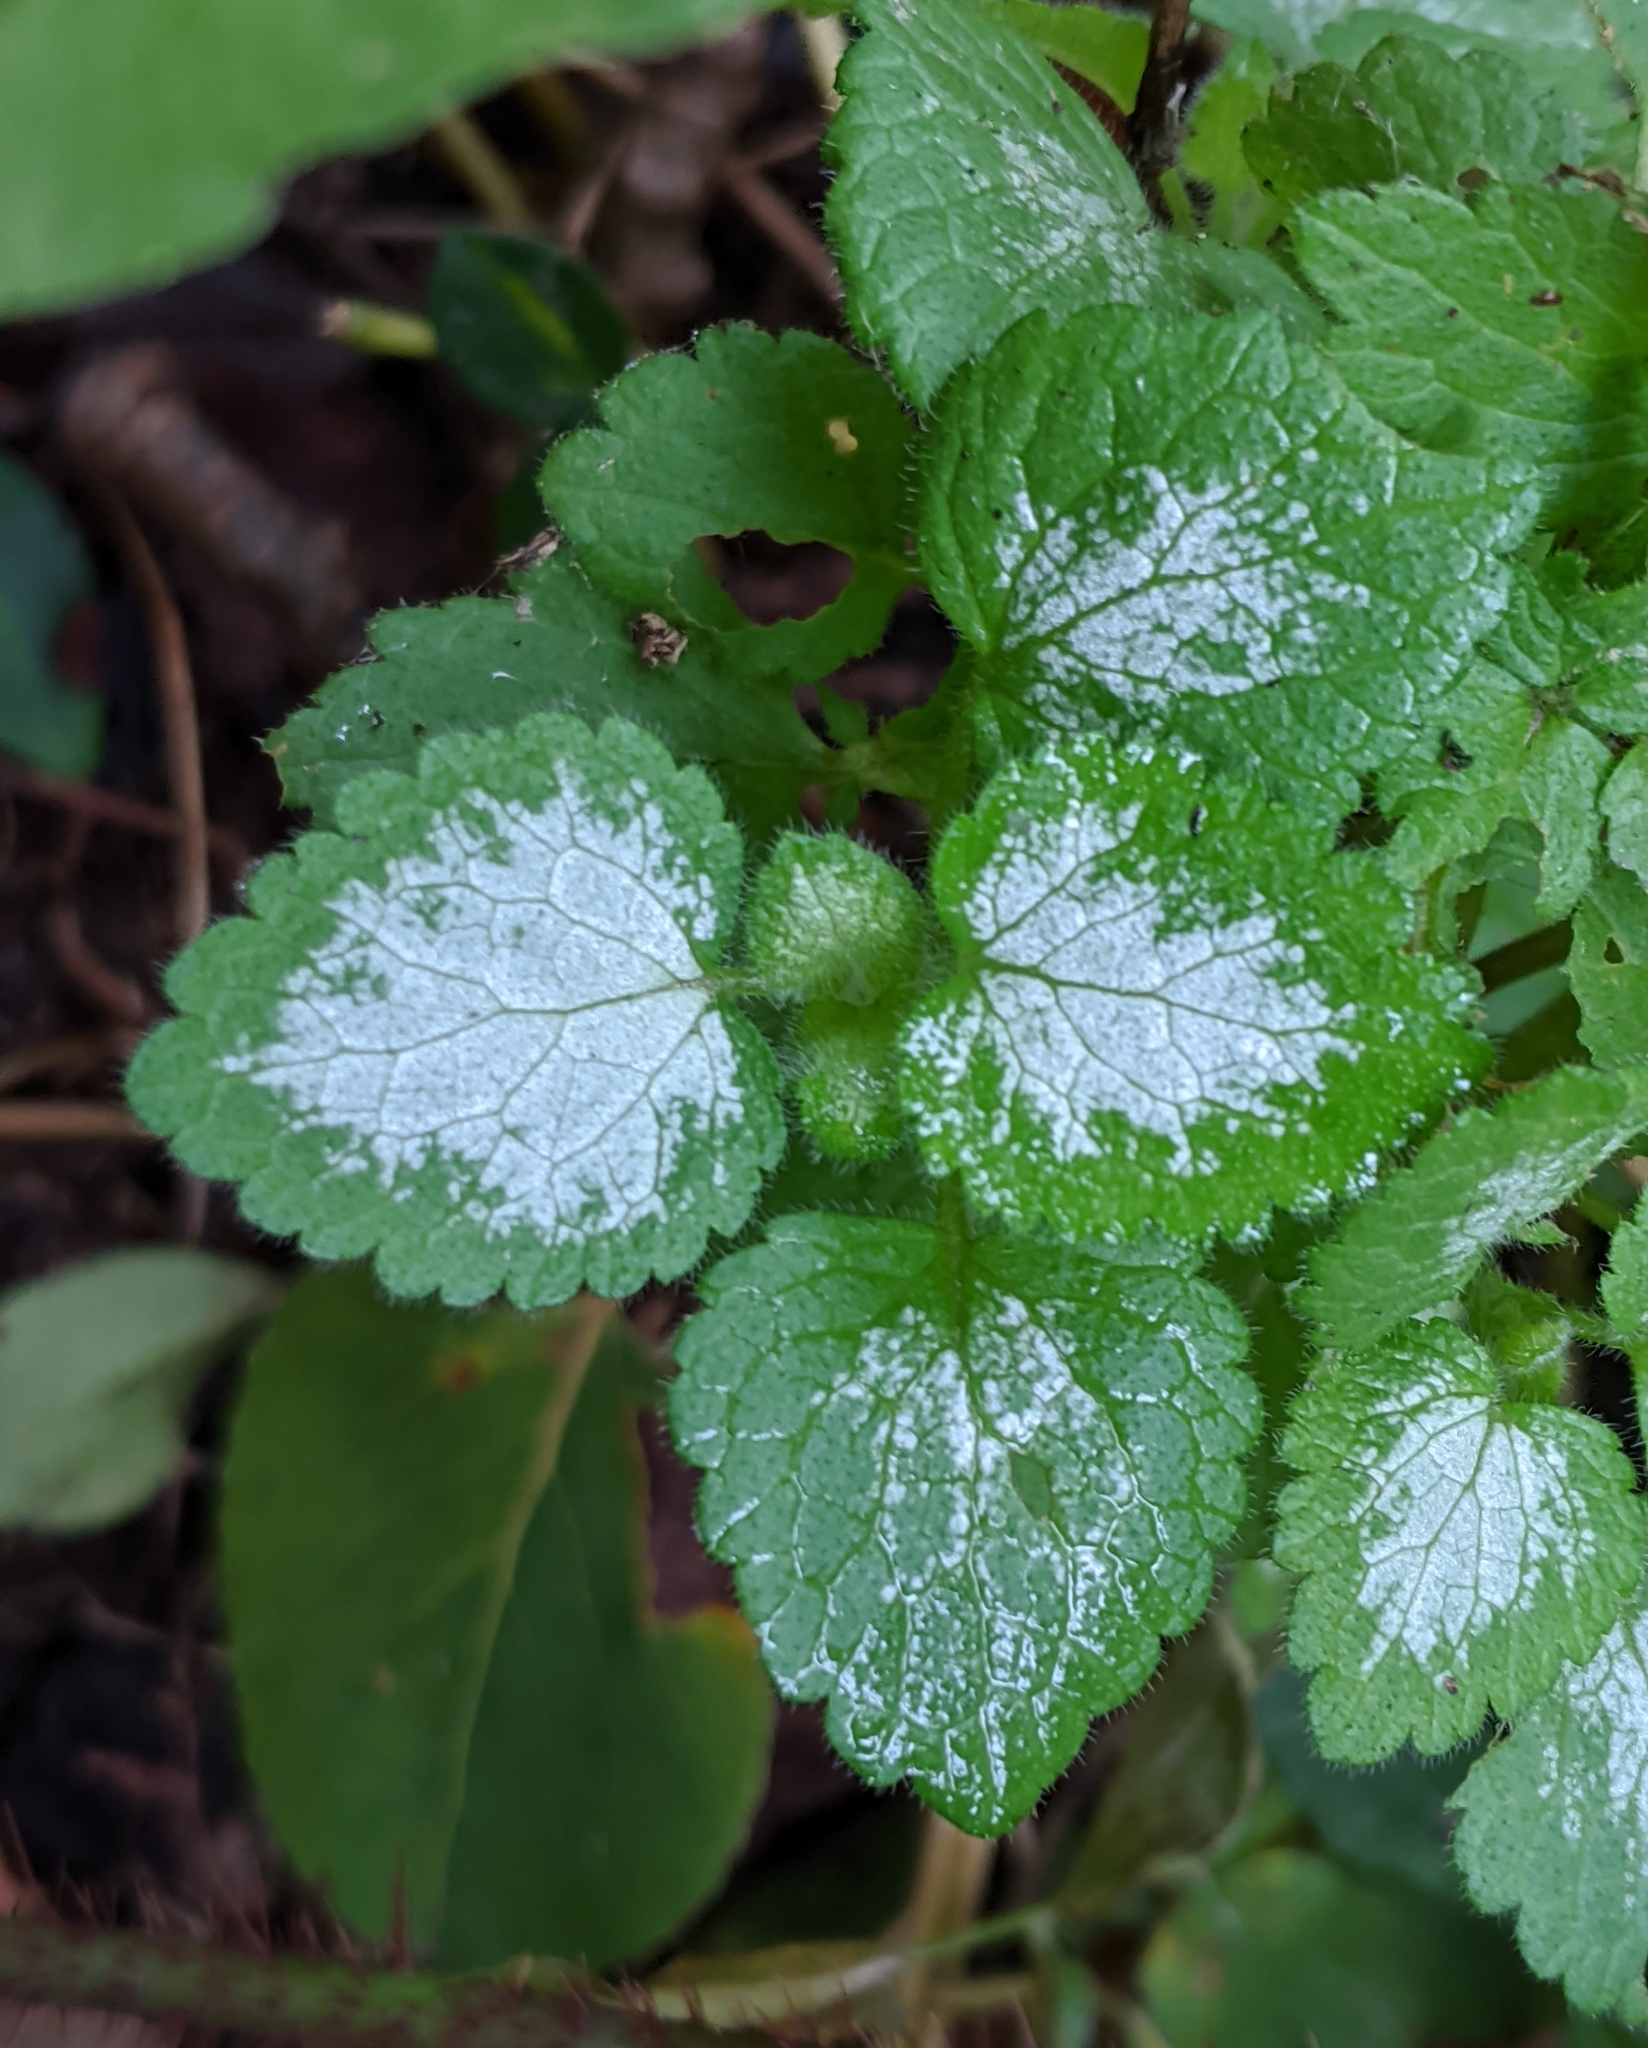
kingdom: Plantae
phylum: Tracheophyta
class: Magnoliopsida
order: Lamiales
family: Lamiaceae
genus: Lamium
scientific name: Lamium maculatum
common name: Spotted dead-nettle
